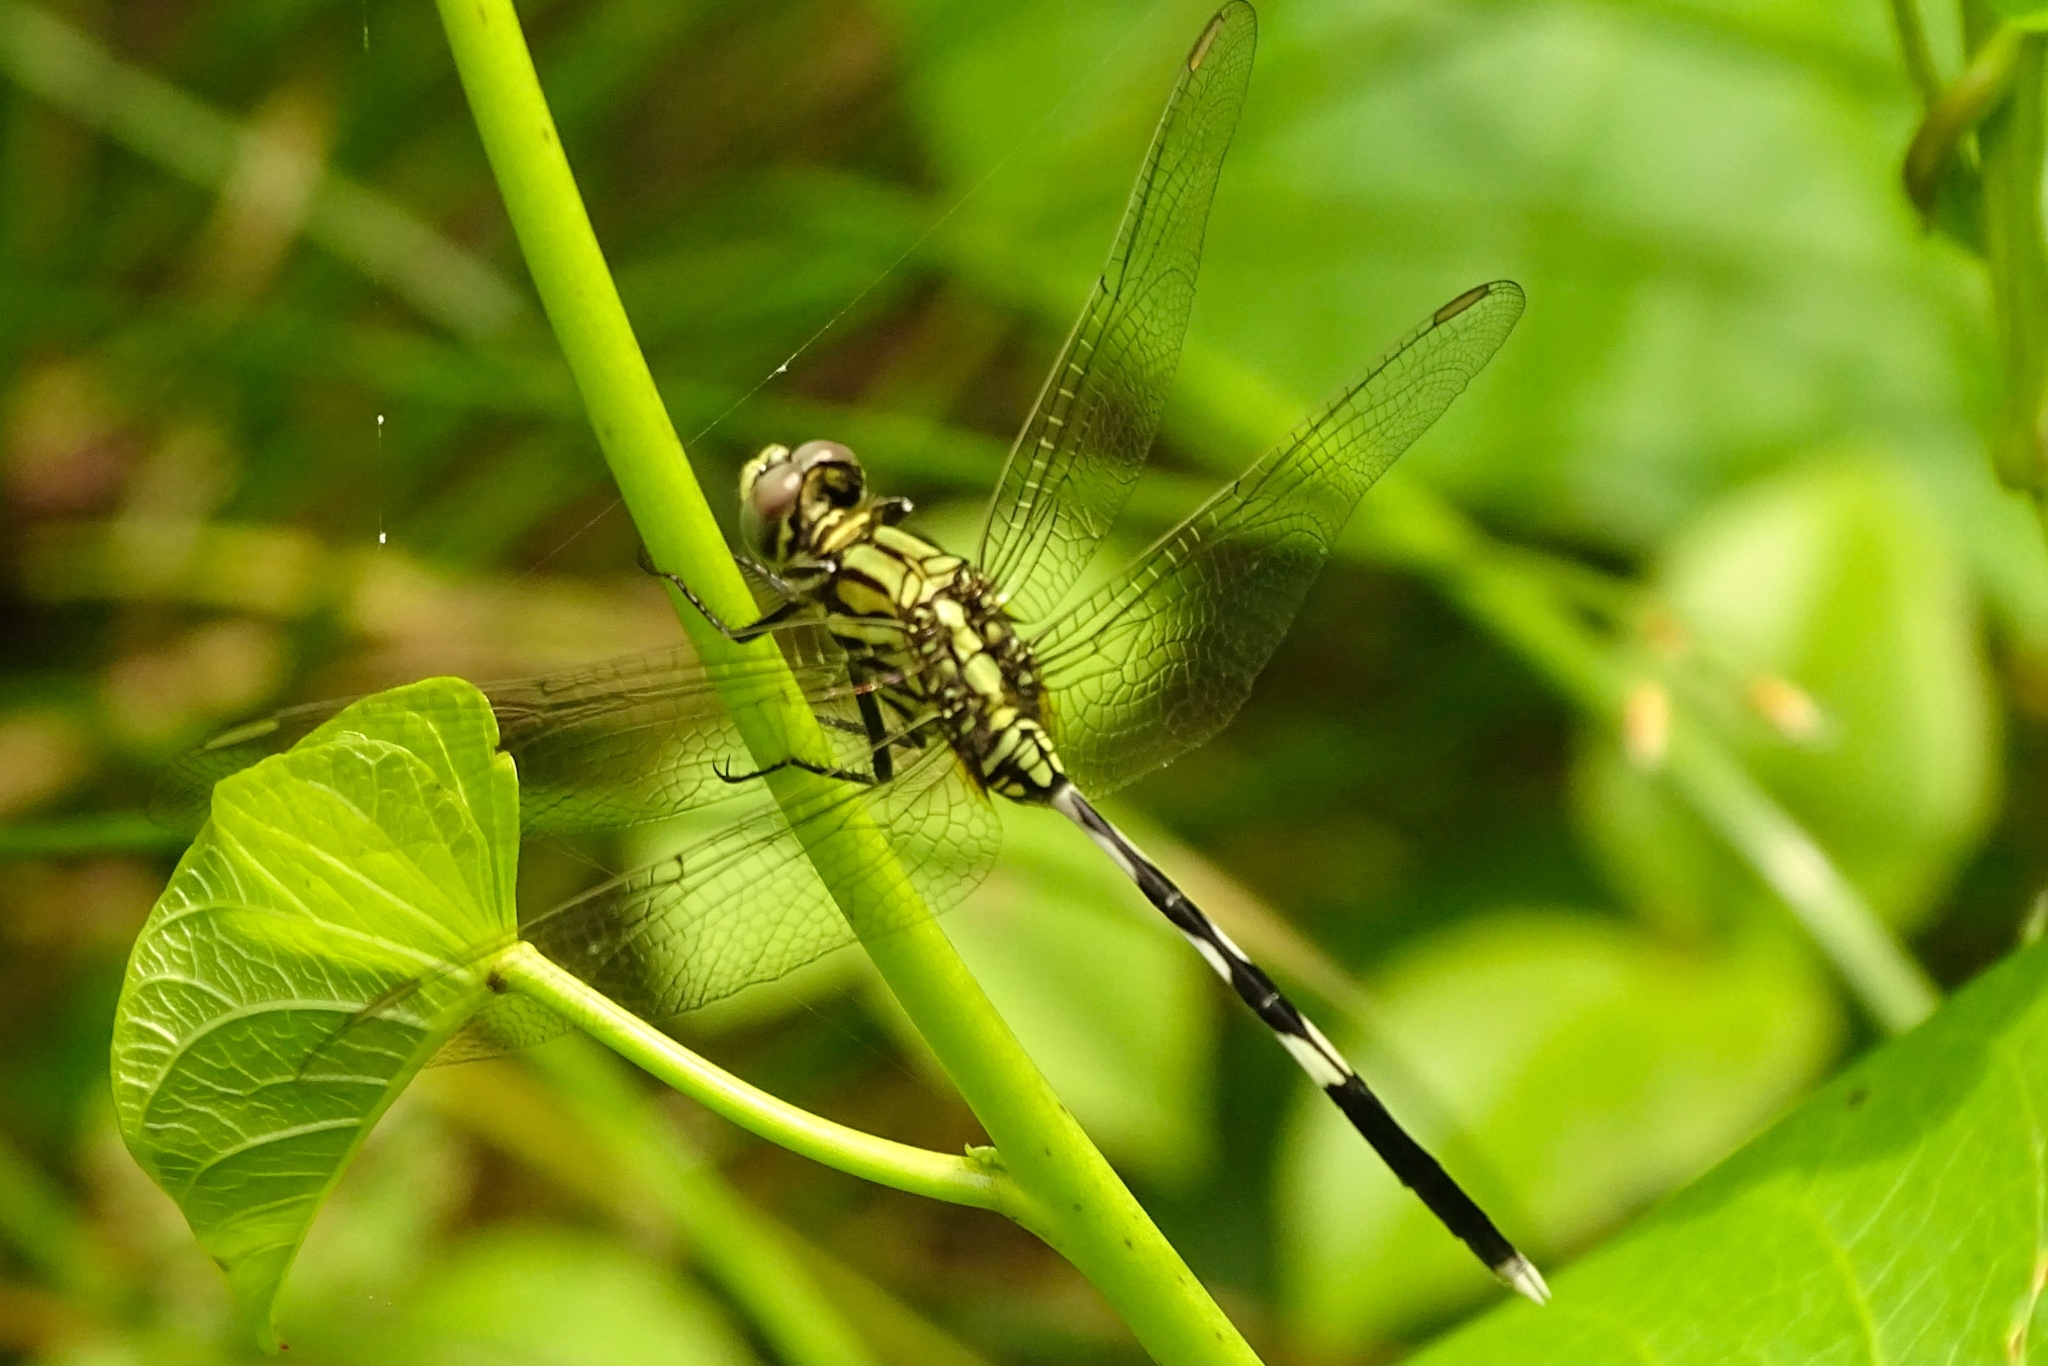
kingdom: Animalia
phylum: Arthropoda
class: Insecta
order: Odonata
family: Libellulidae
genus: Orthetrum
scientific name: Orthetrum sabina
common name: Slender skimmer
